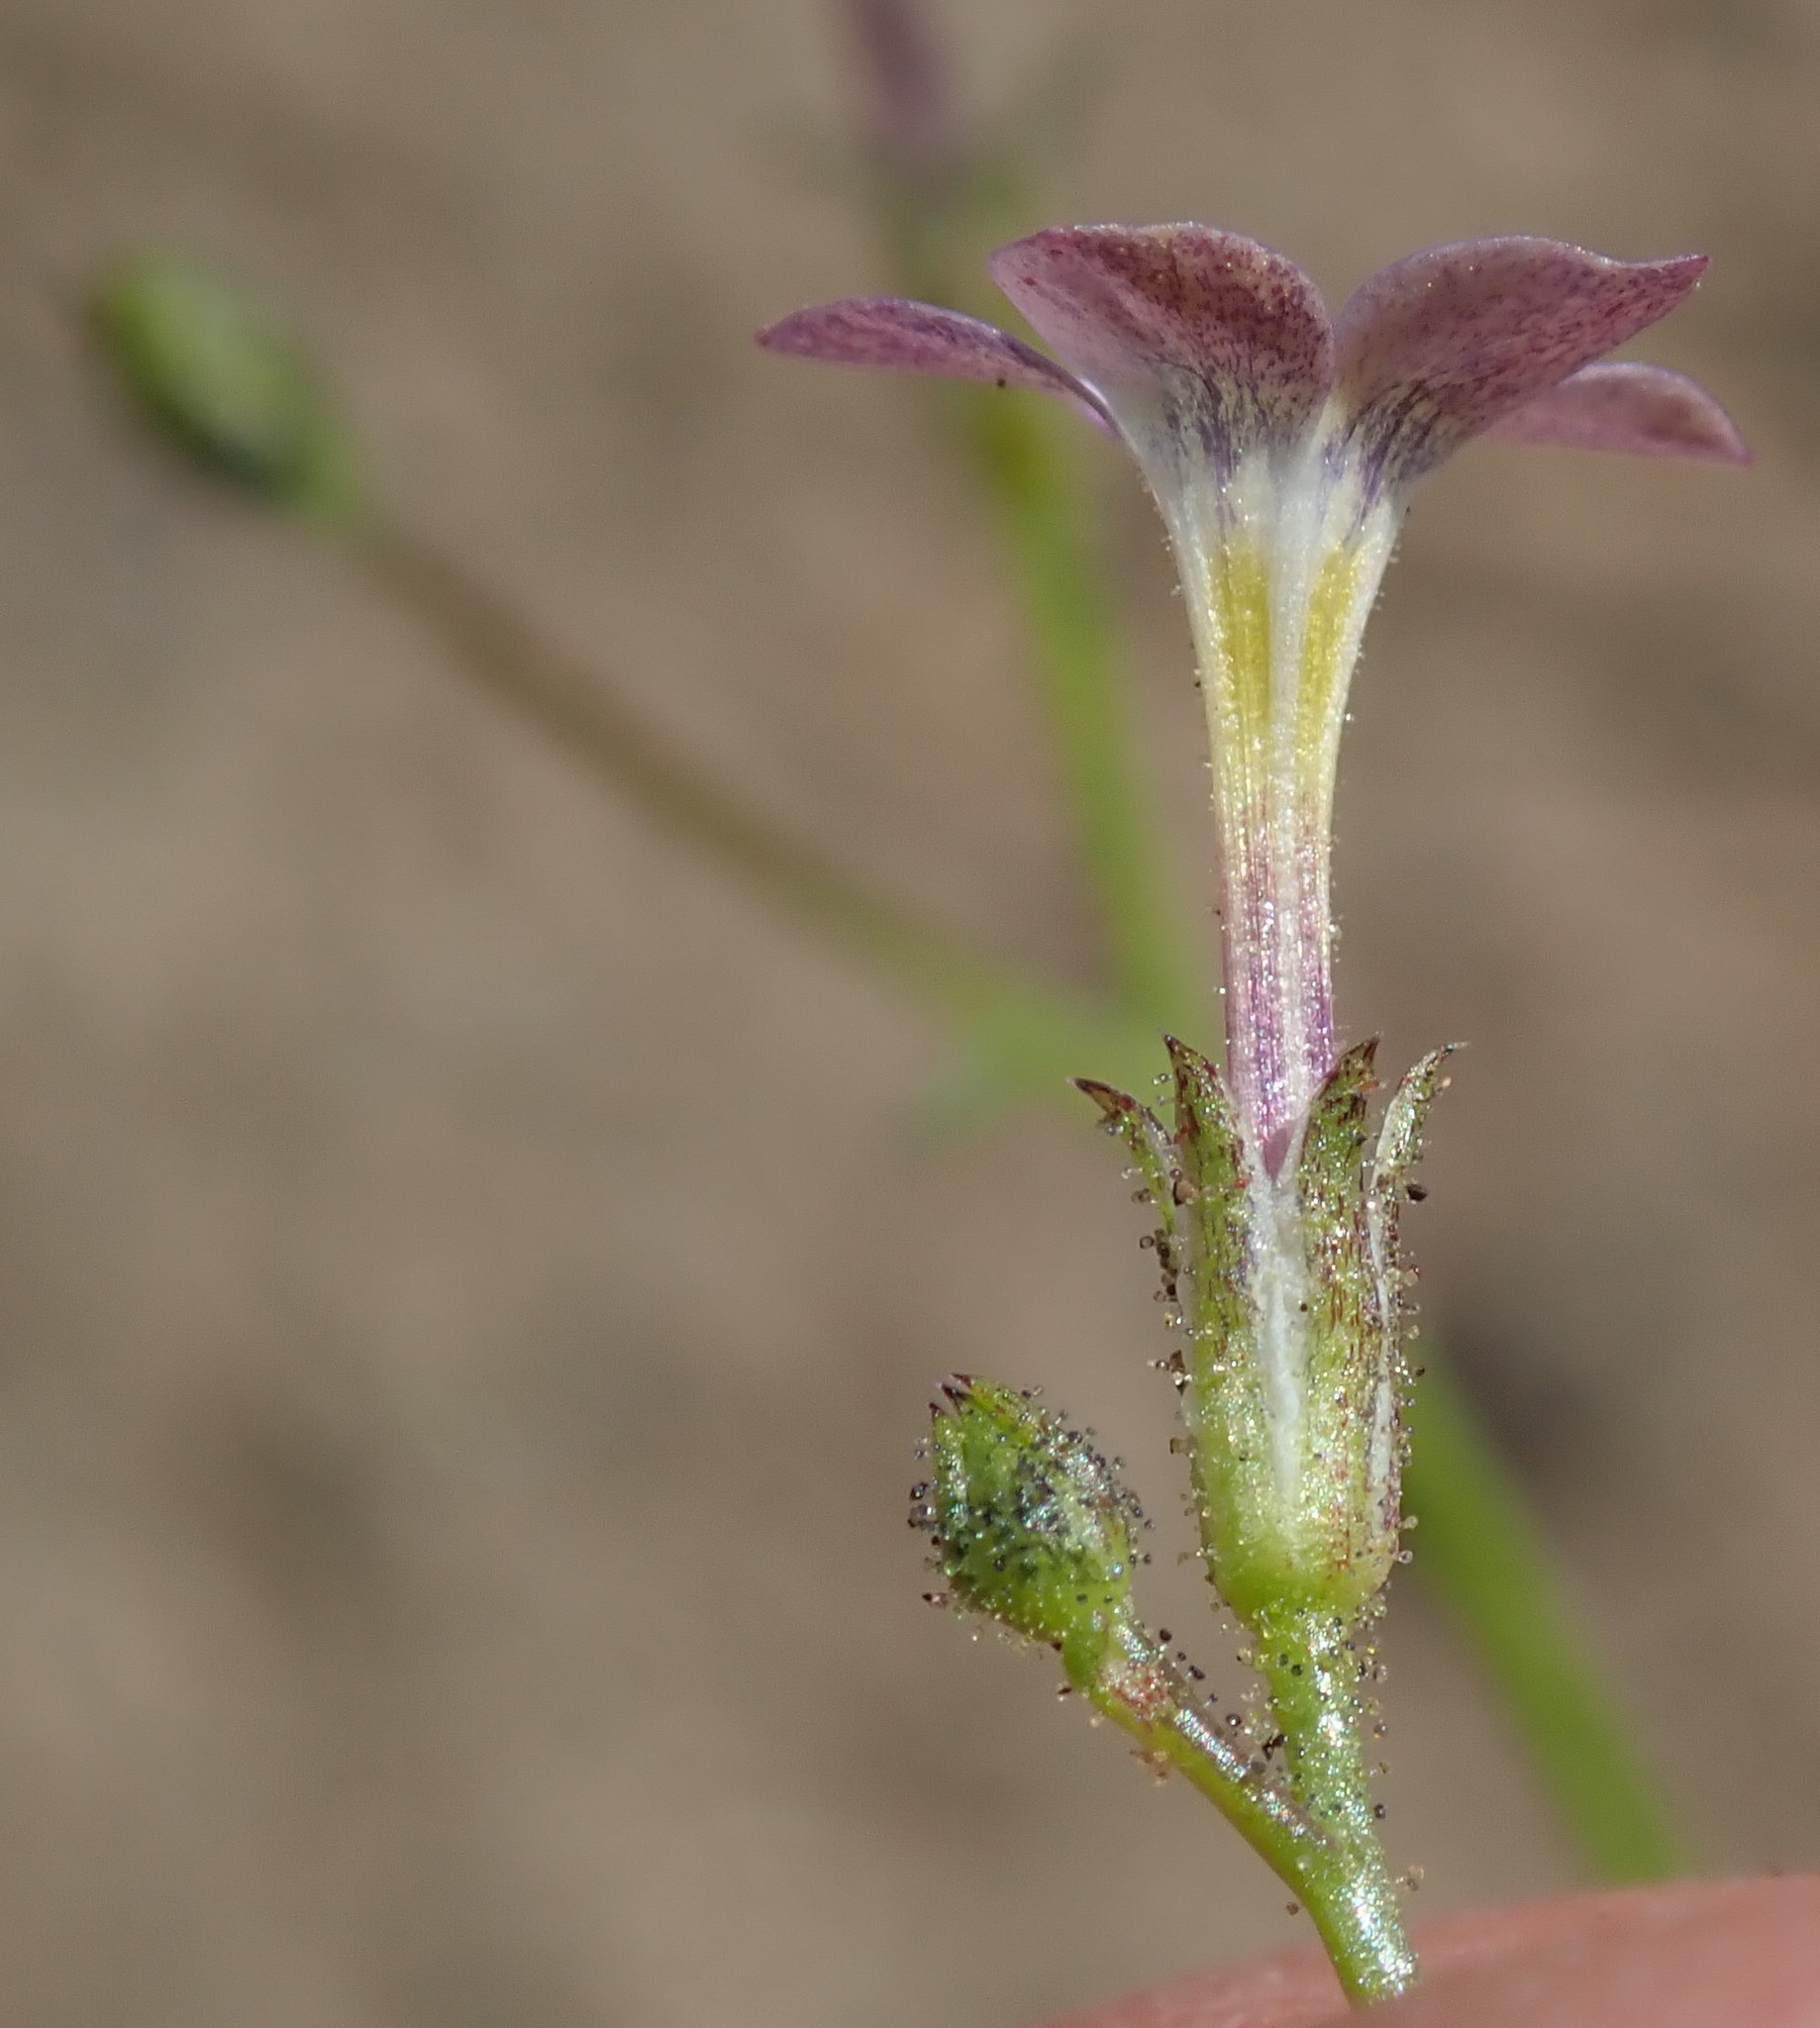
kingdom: Plantae
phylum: Tracheophyta
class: Magnoliopsida
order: Ericales
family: Polemoniaceae
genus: Gilia
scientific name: Gilia sinuata
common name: Rosy gilia
